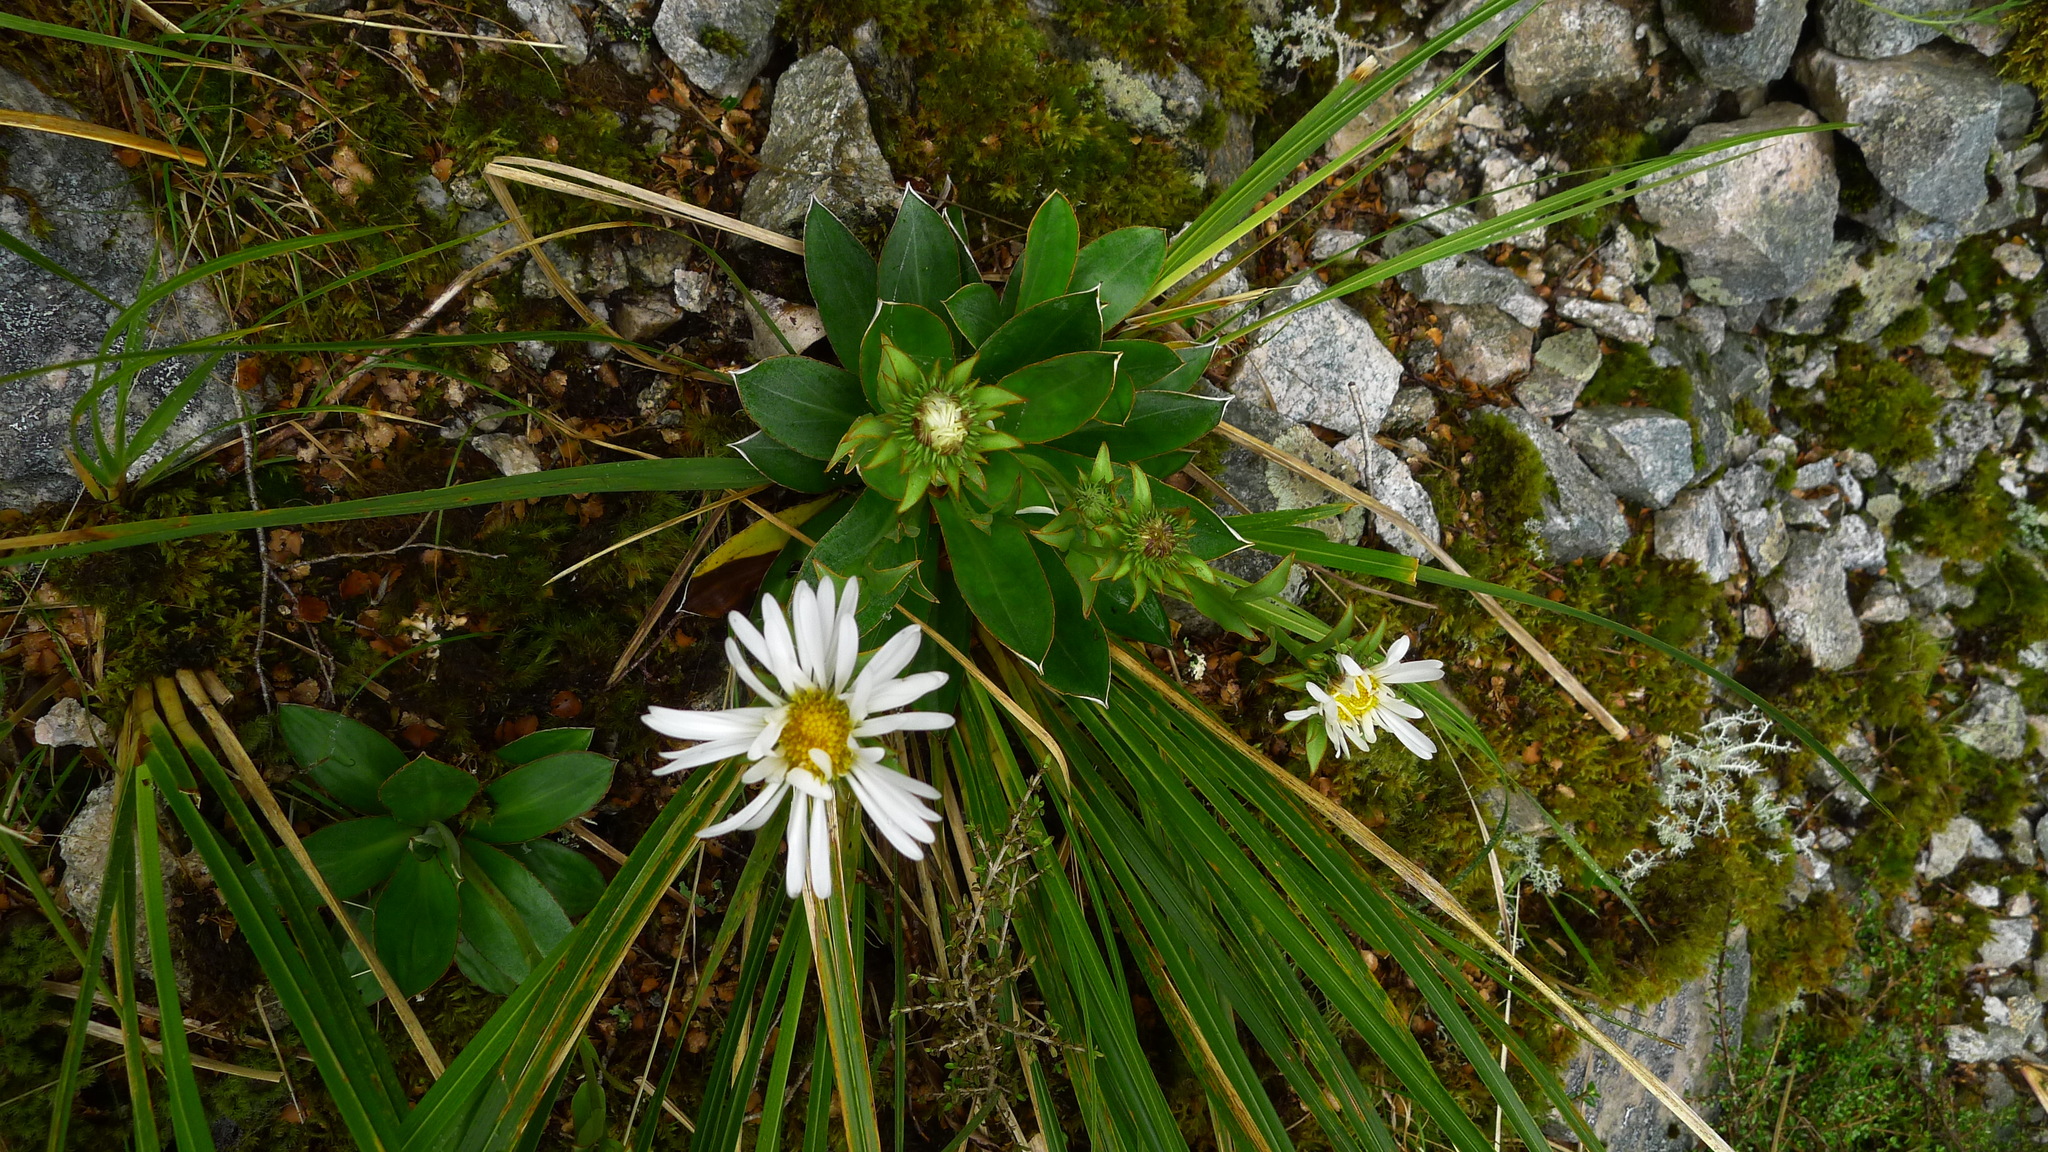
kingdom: Plantae
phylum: Tracheophyta
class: Magnoliopsida
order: Asterales
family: Asteraceae
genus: Celmisia
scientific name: Celmisia dallii
